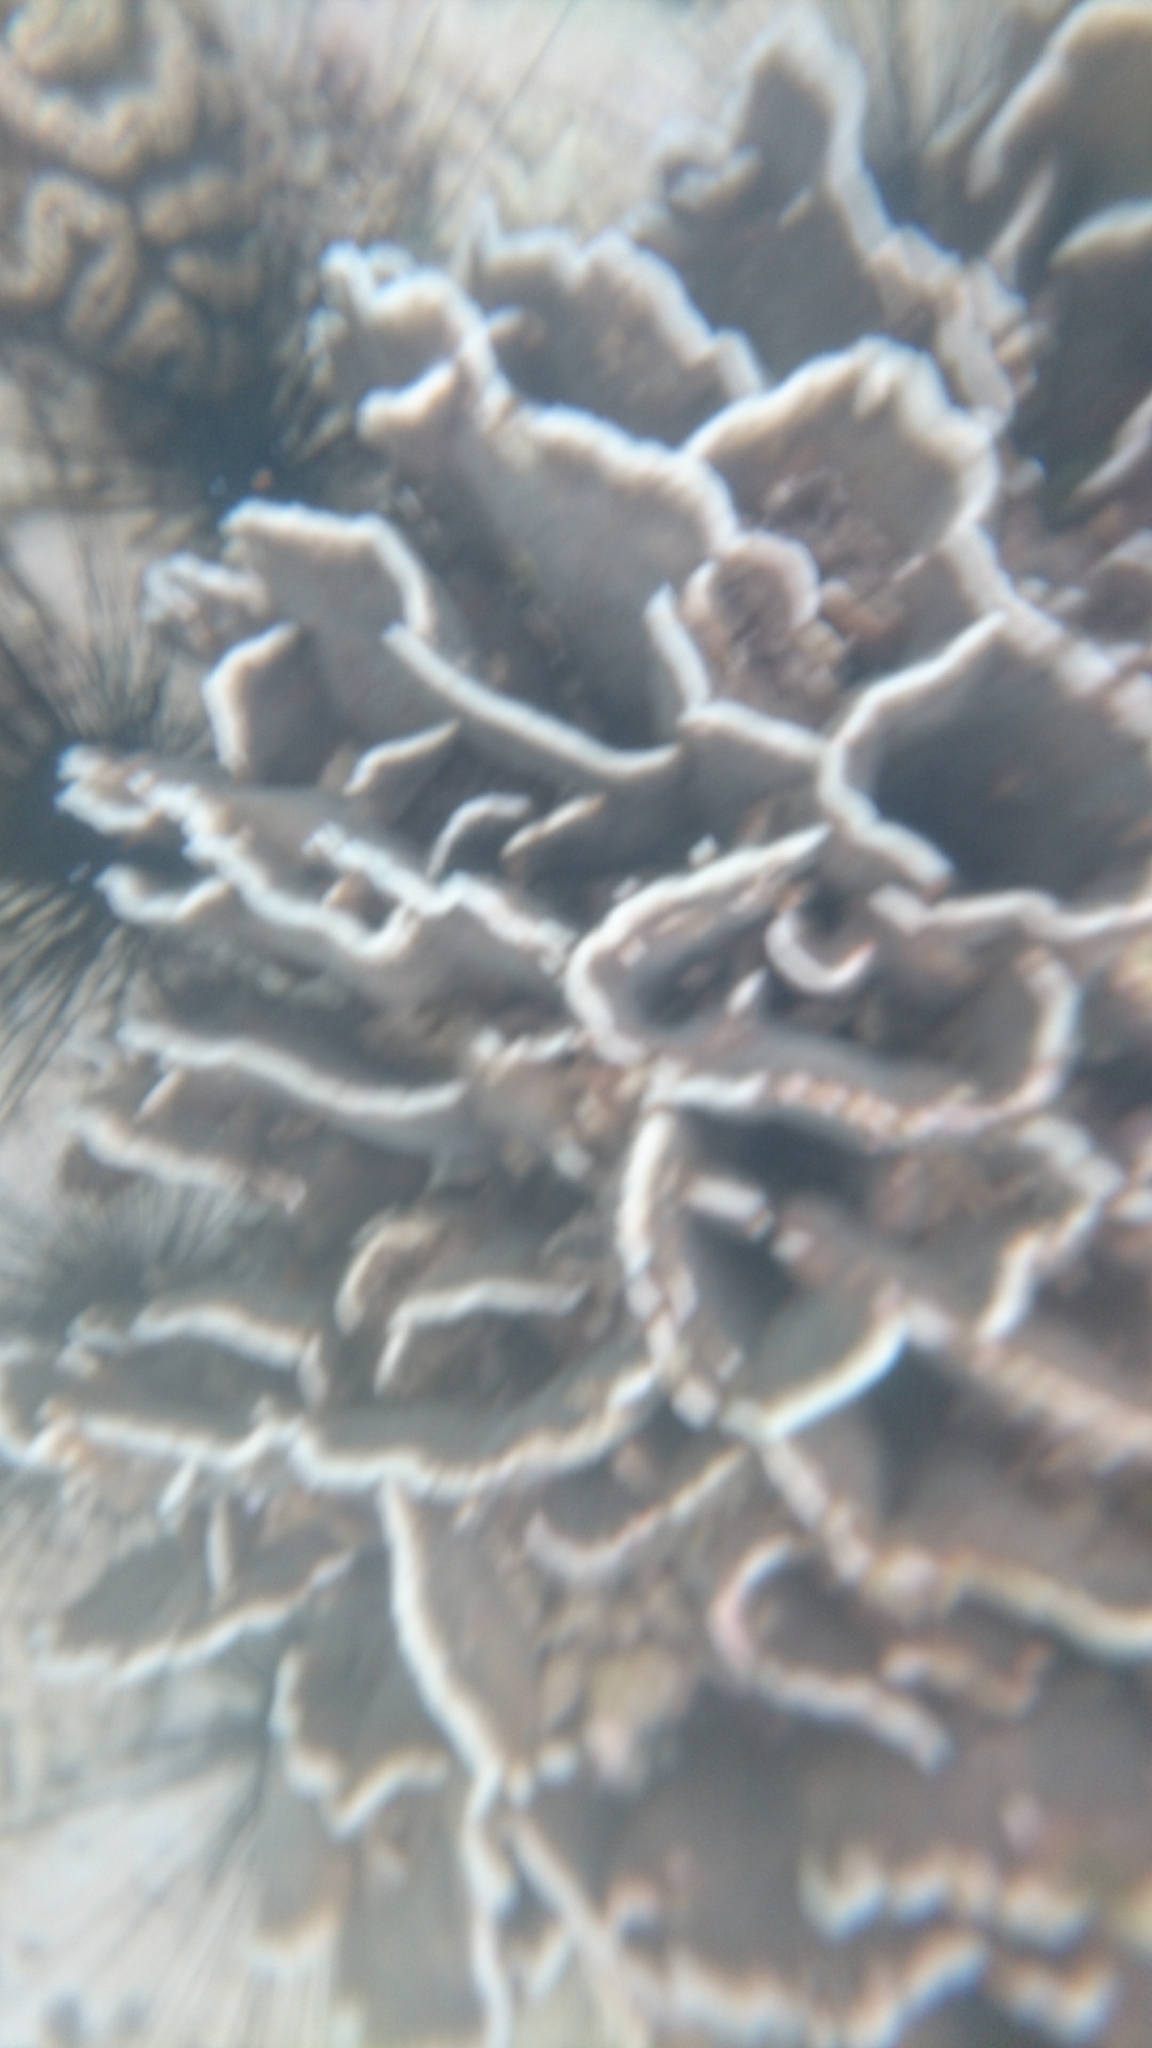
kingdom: Animalia
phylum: Cnidaria
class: Anthozoa
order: Scleractinia
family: Agariciidae
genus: Pavona
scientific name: Pavona decussata
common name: Leaf coral
